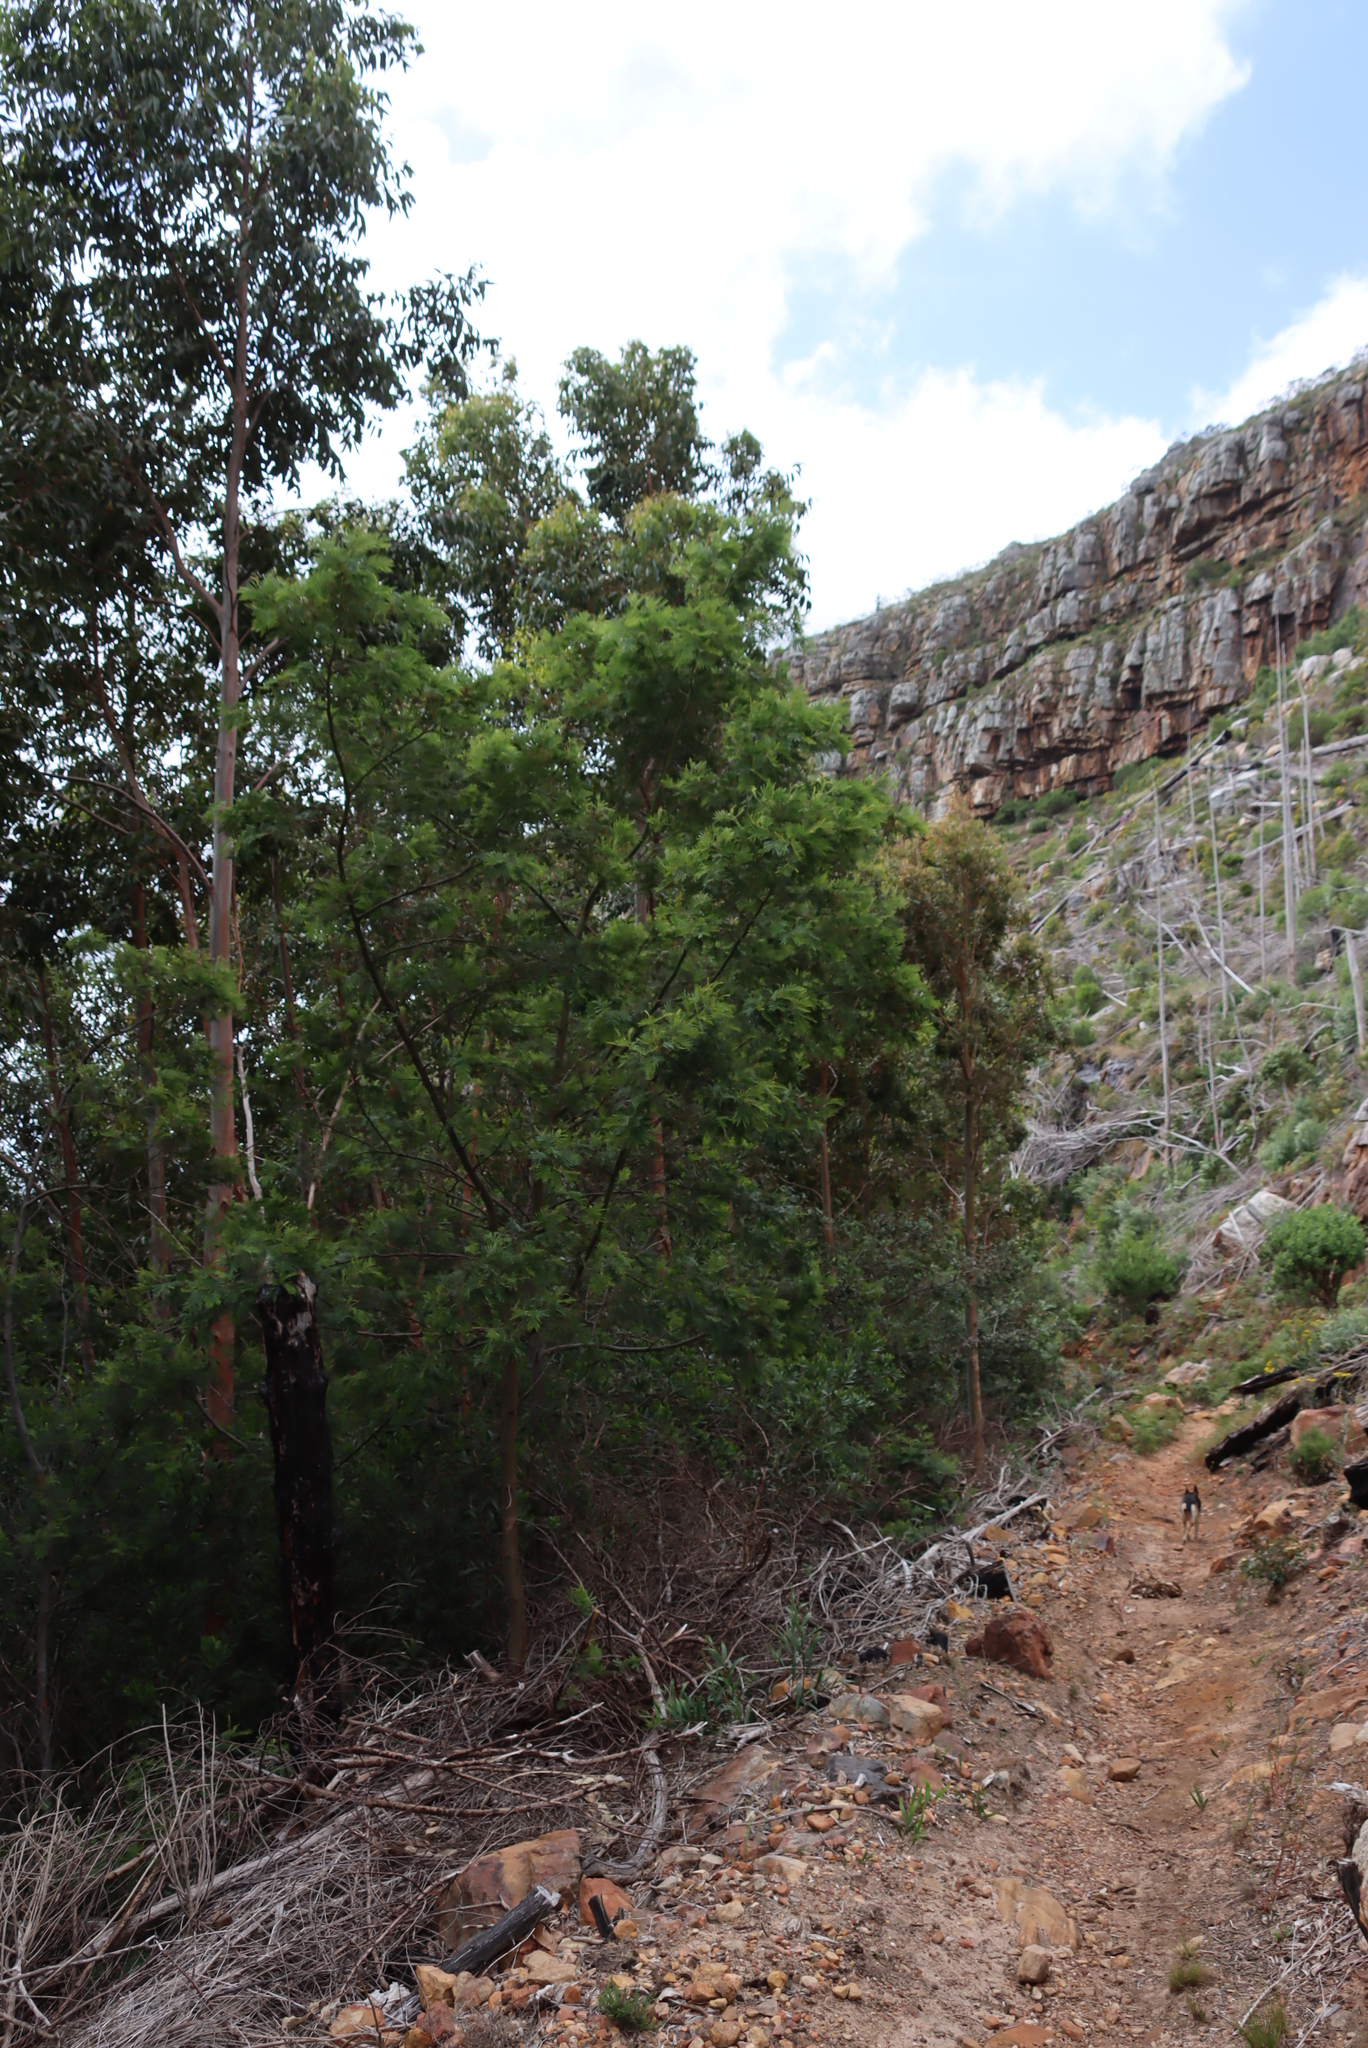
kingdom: Plantae
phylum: Tracheophyta
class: Magnoliopsida
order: Fabales
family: Fabaceae
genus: Acacia
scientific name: Acacia mearnsii
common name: Black wattle
